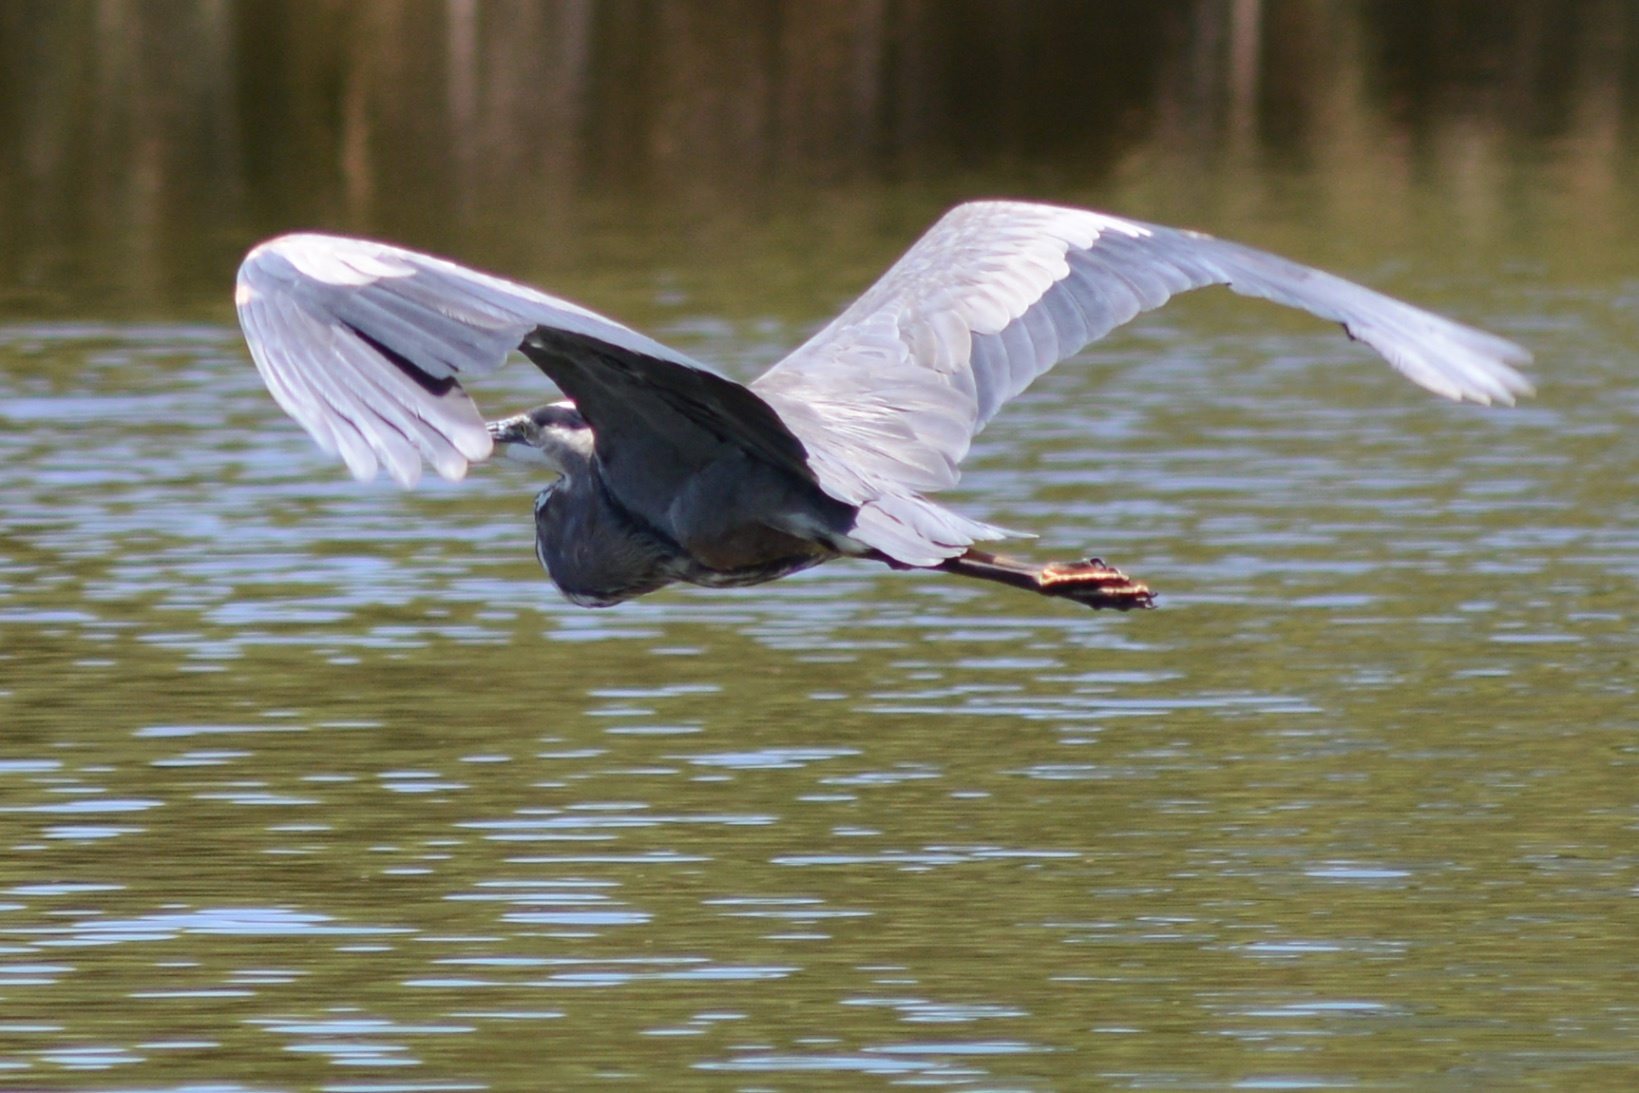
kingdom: Animalia
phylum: Chordata
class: Aves
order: Pelecaniformes
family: Ardeidae
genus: Ardea
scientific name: Ardea herodias
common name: Great blue heron
